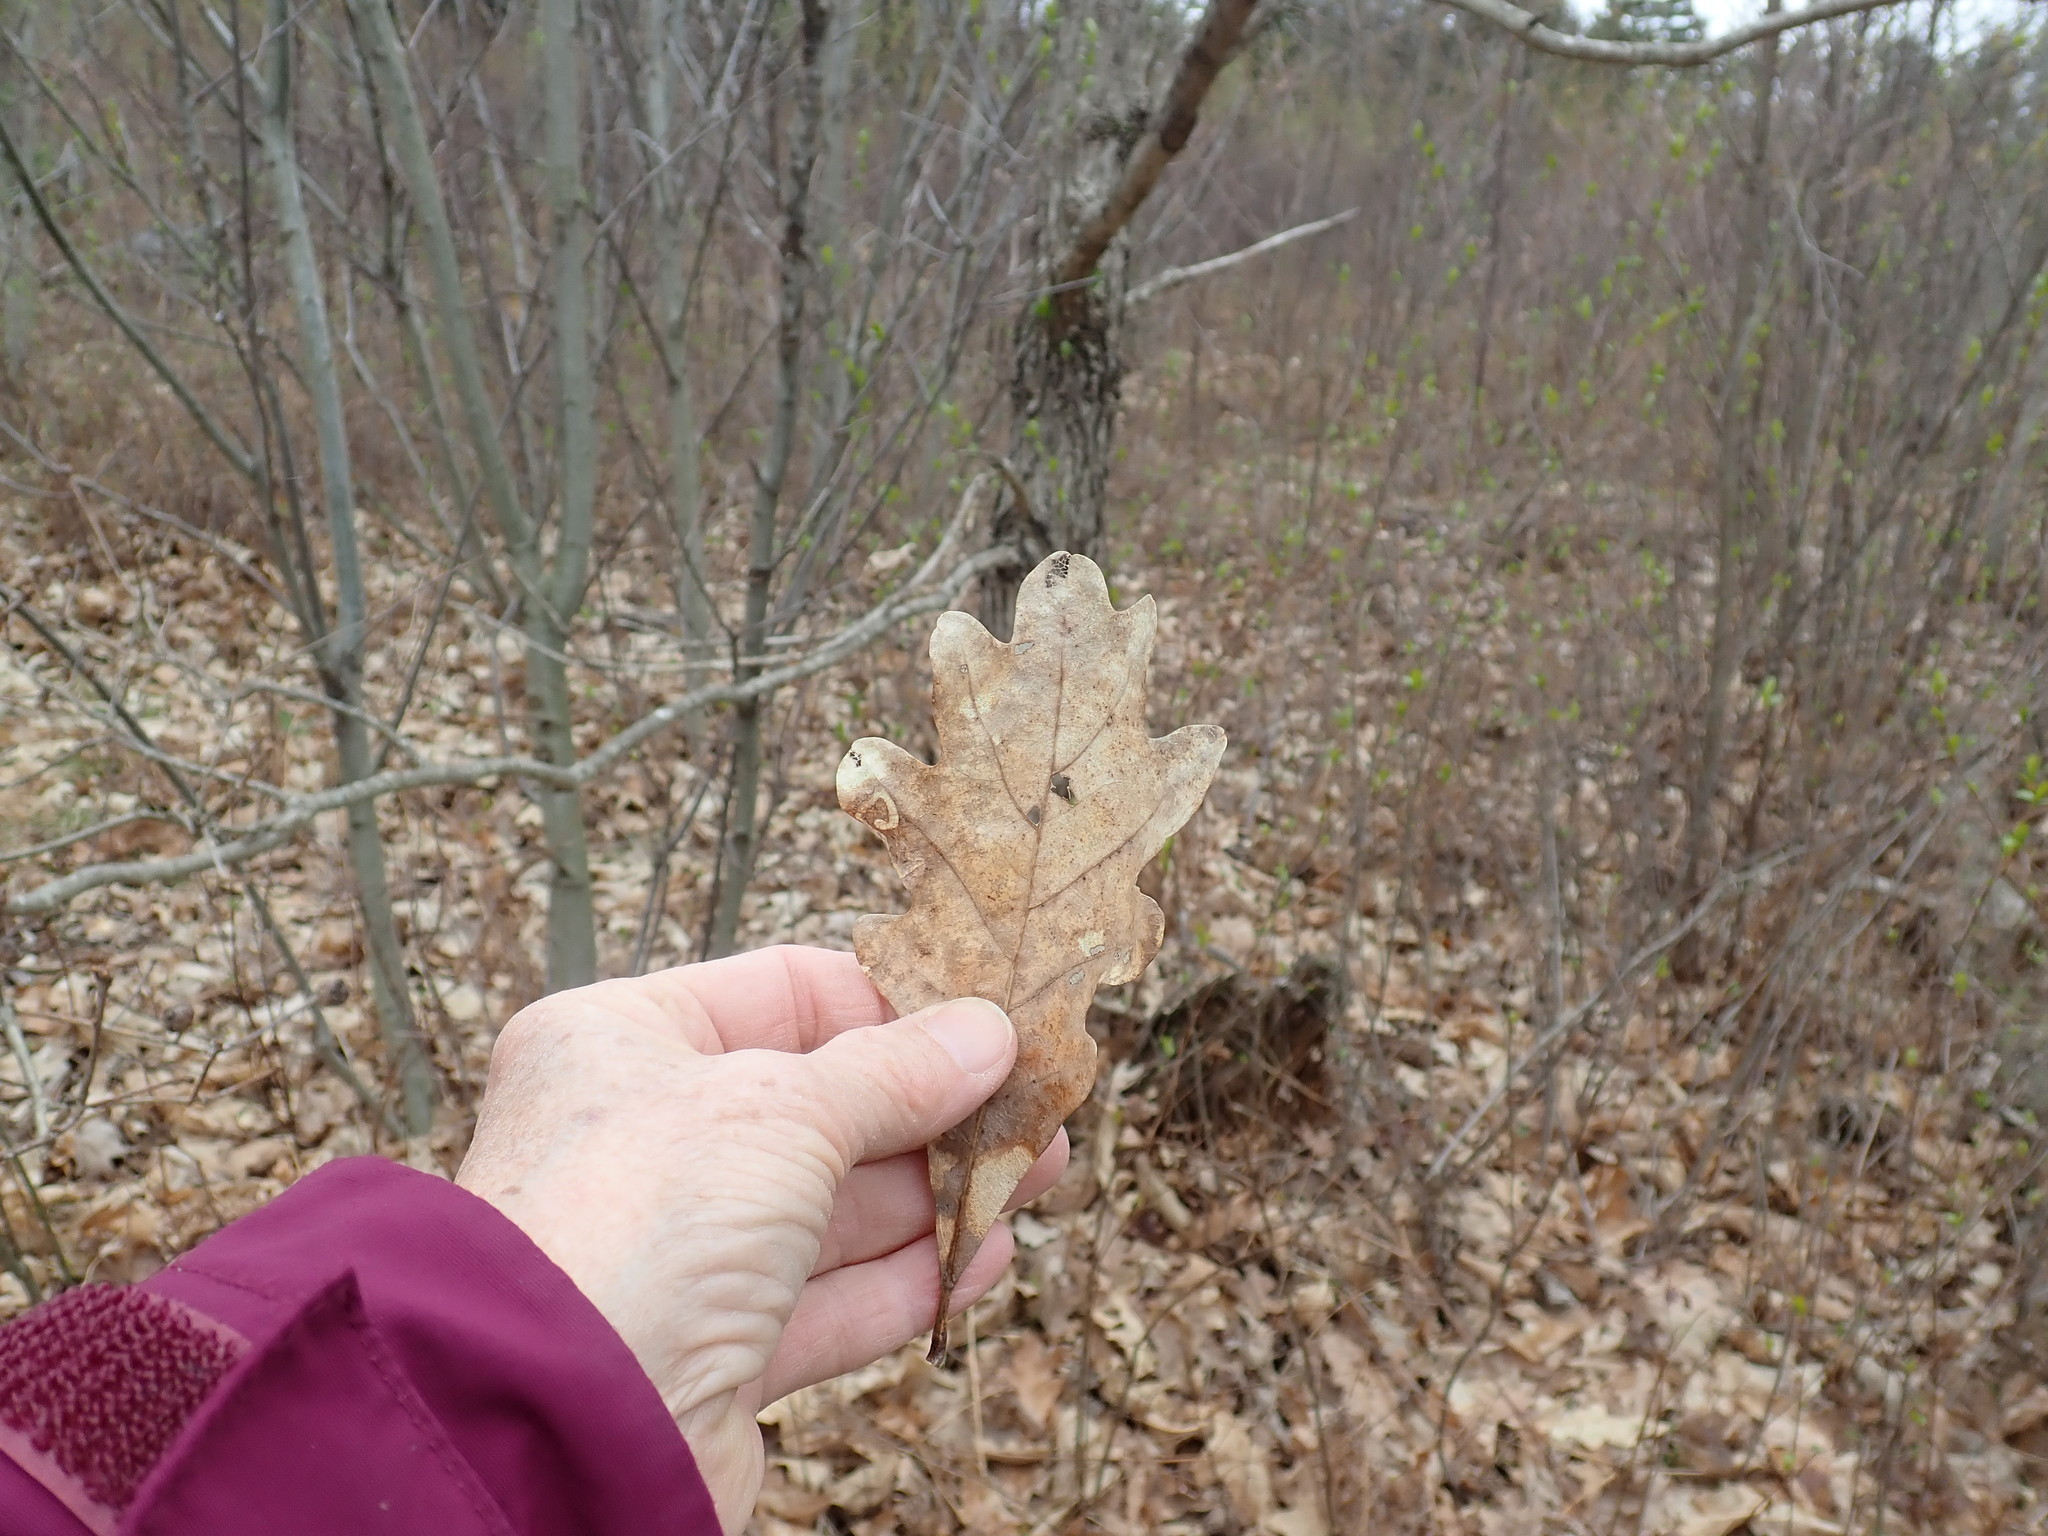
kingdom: Plantae
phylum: Tracheophyta
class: Magnoliopsida
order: Fagales
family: Fagaceae
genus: Quercus
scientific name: Quercus alba
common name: White oak
